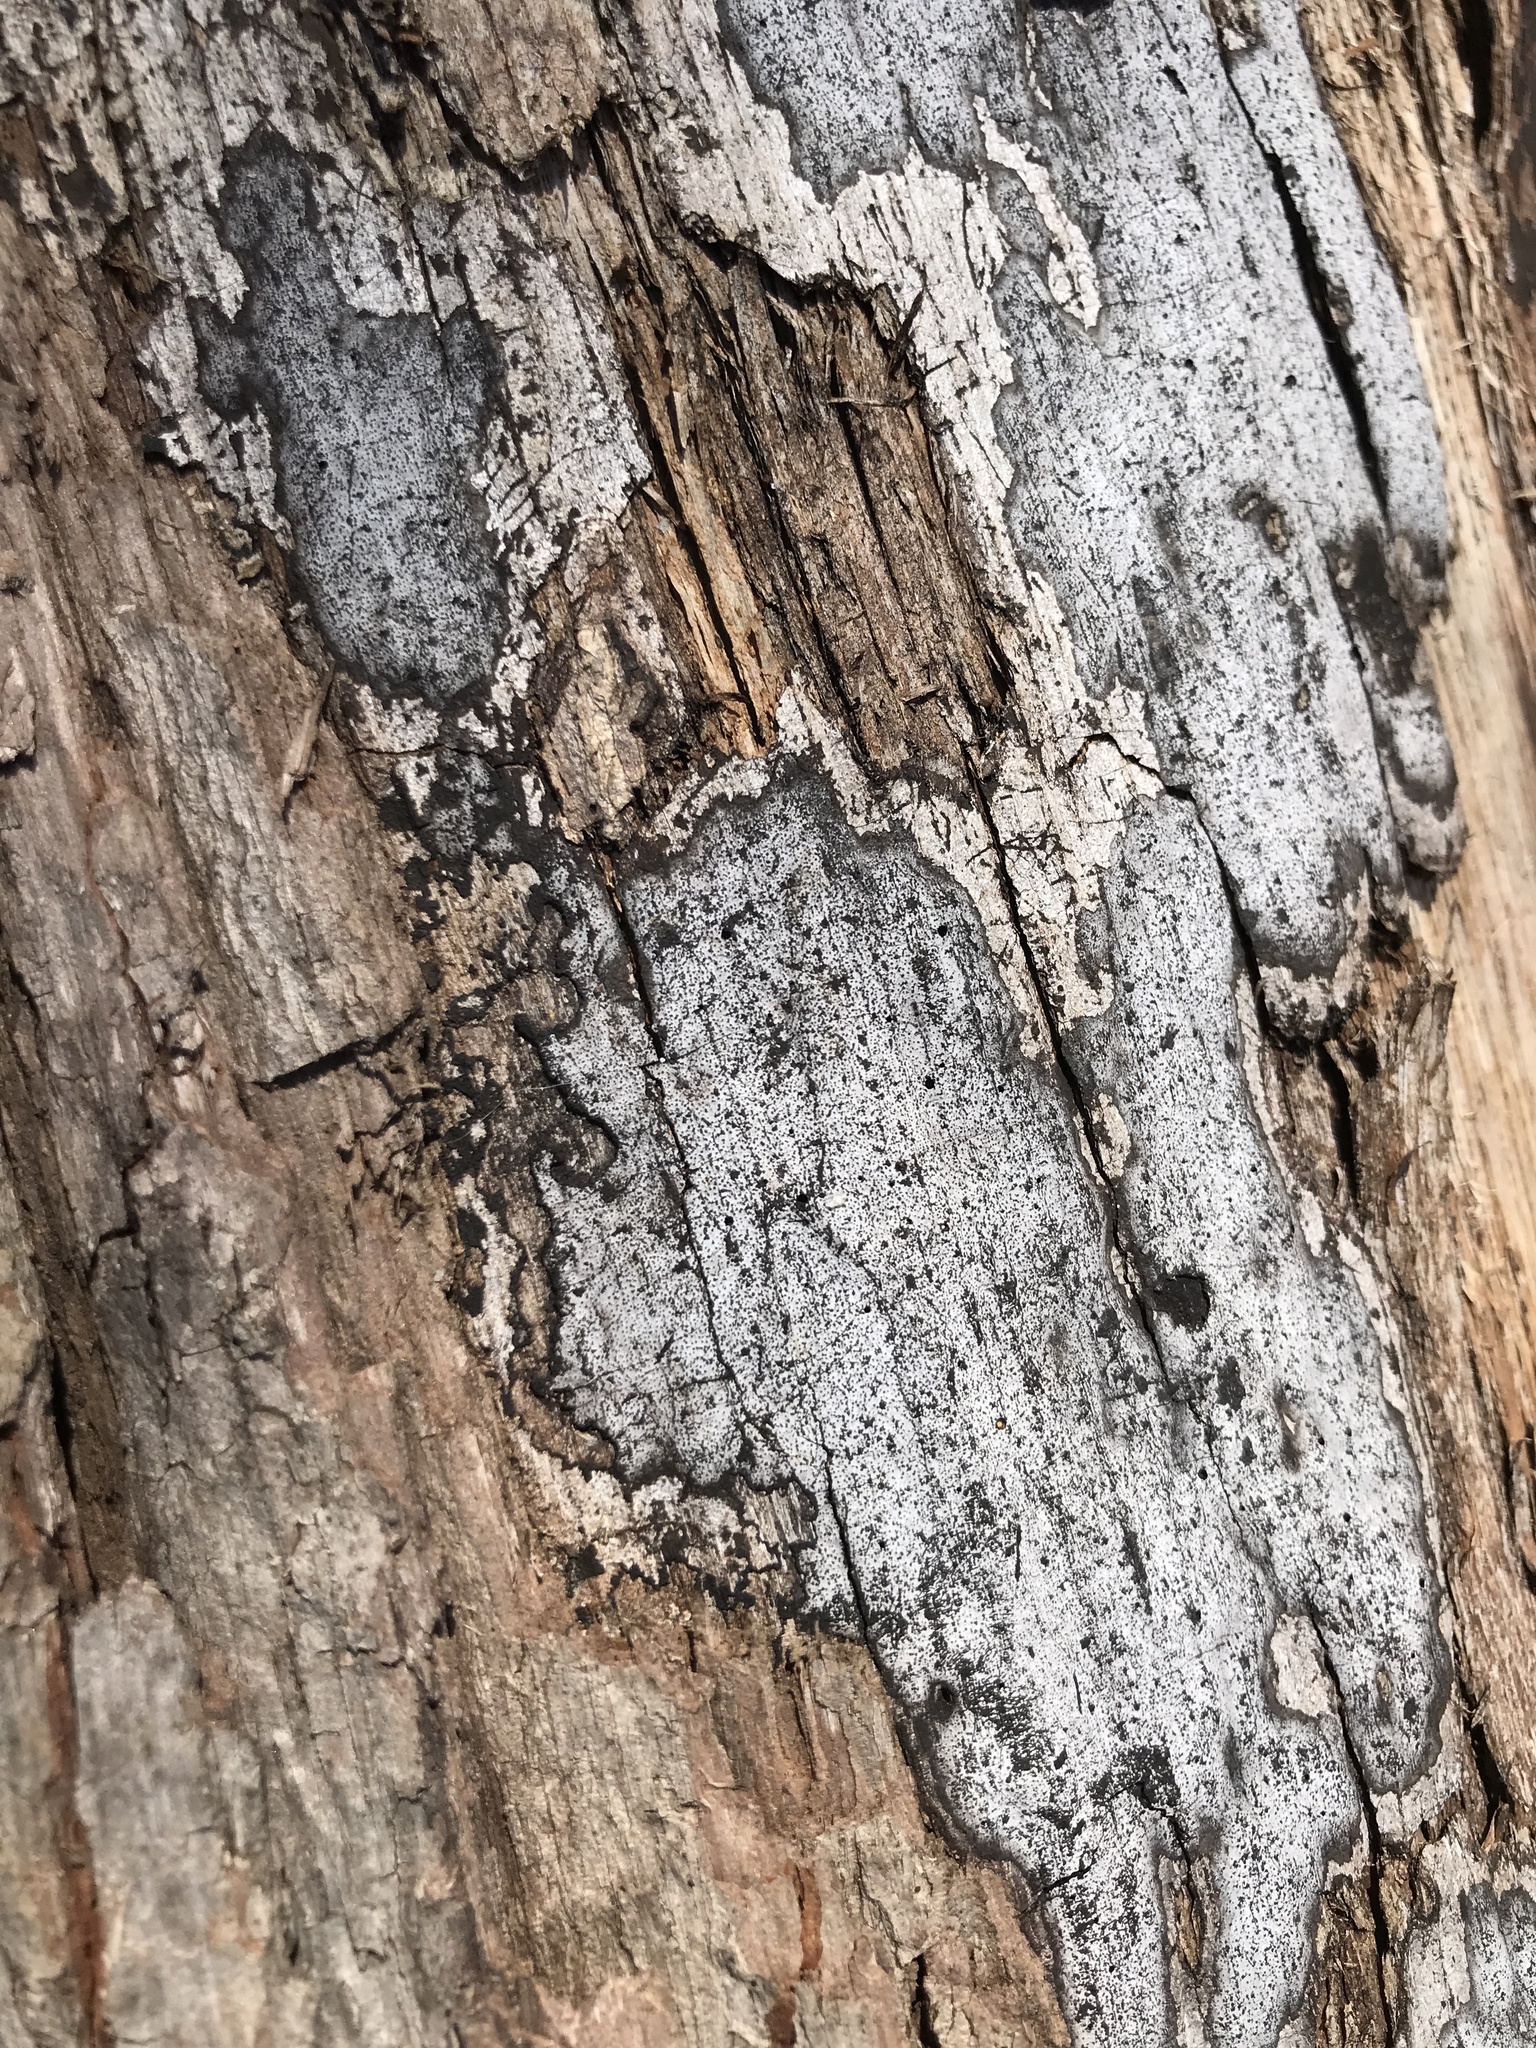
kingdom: Fungi
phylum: Ascomycota
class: Sordariomycetes
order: Xylariales
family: Graphostromataceae
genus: Biscogniauxia
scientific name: Biscogniauxia atropunctata
